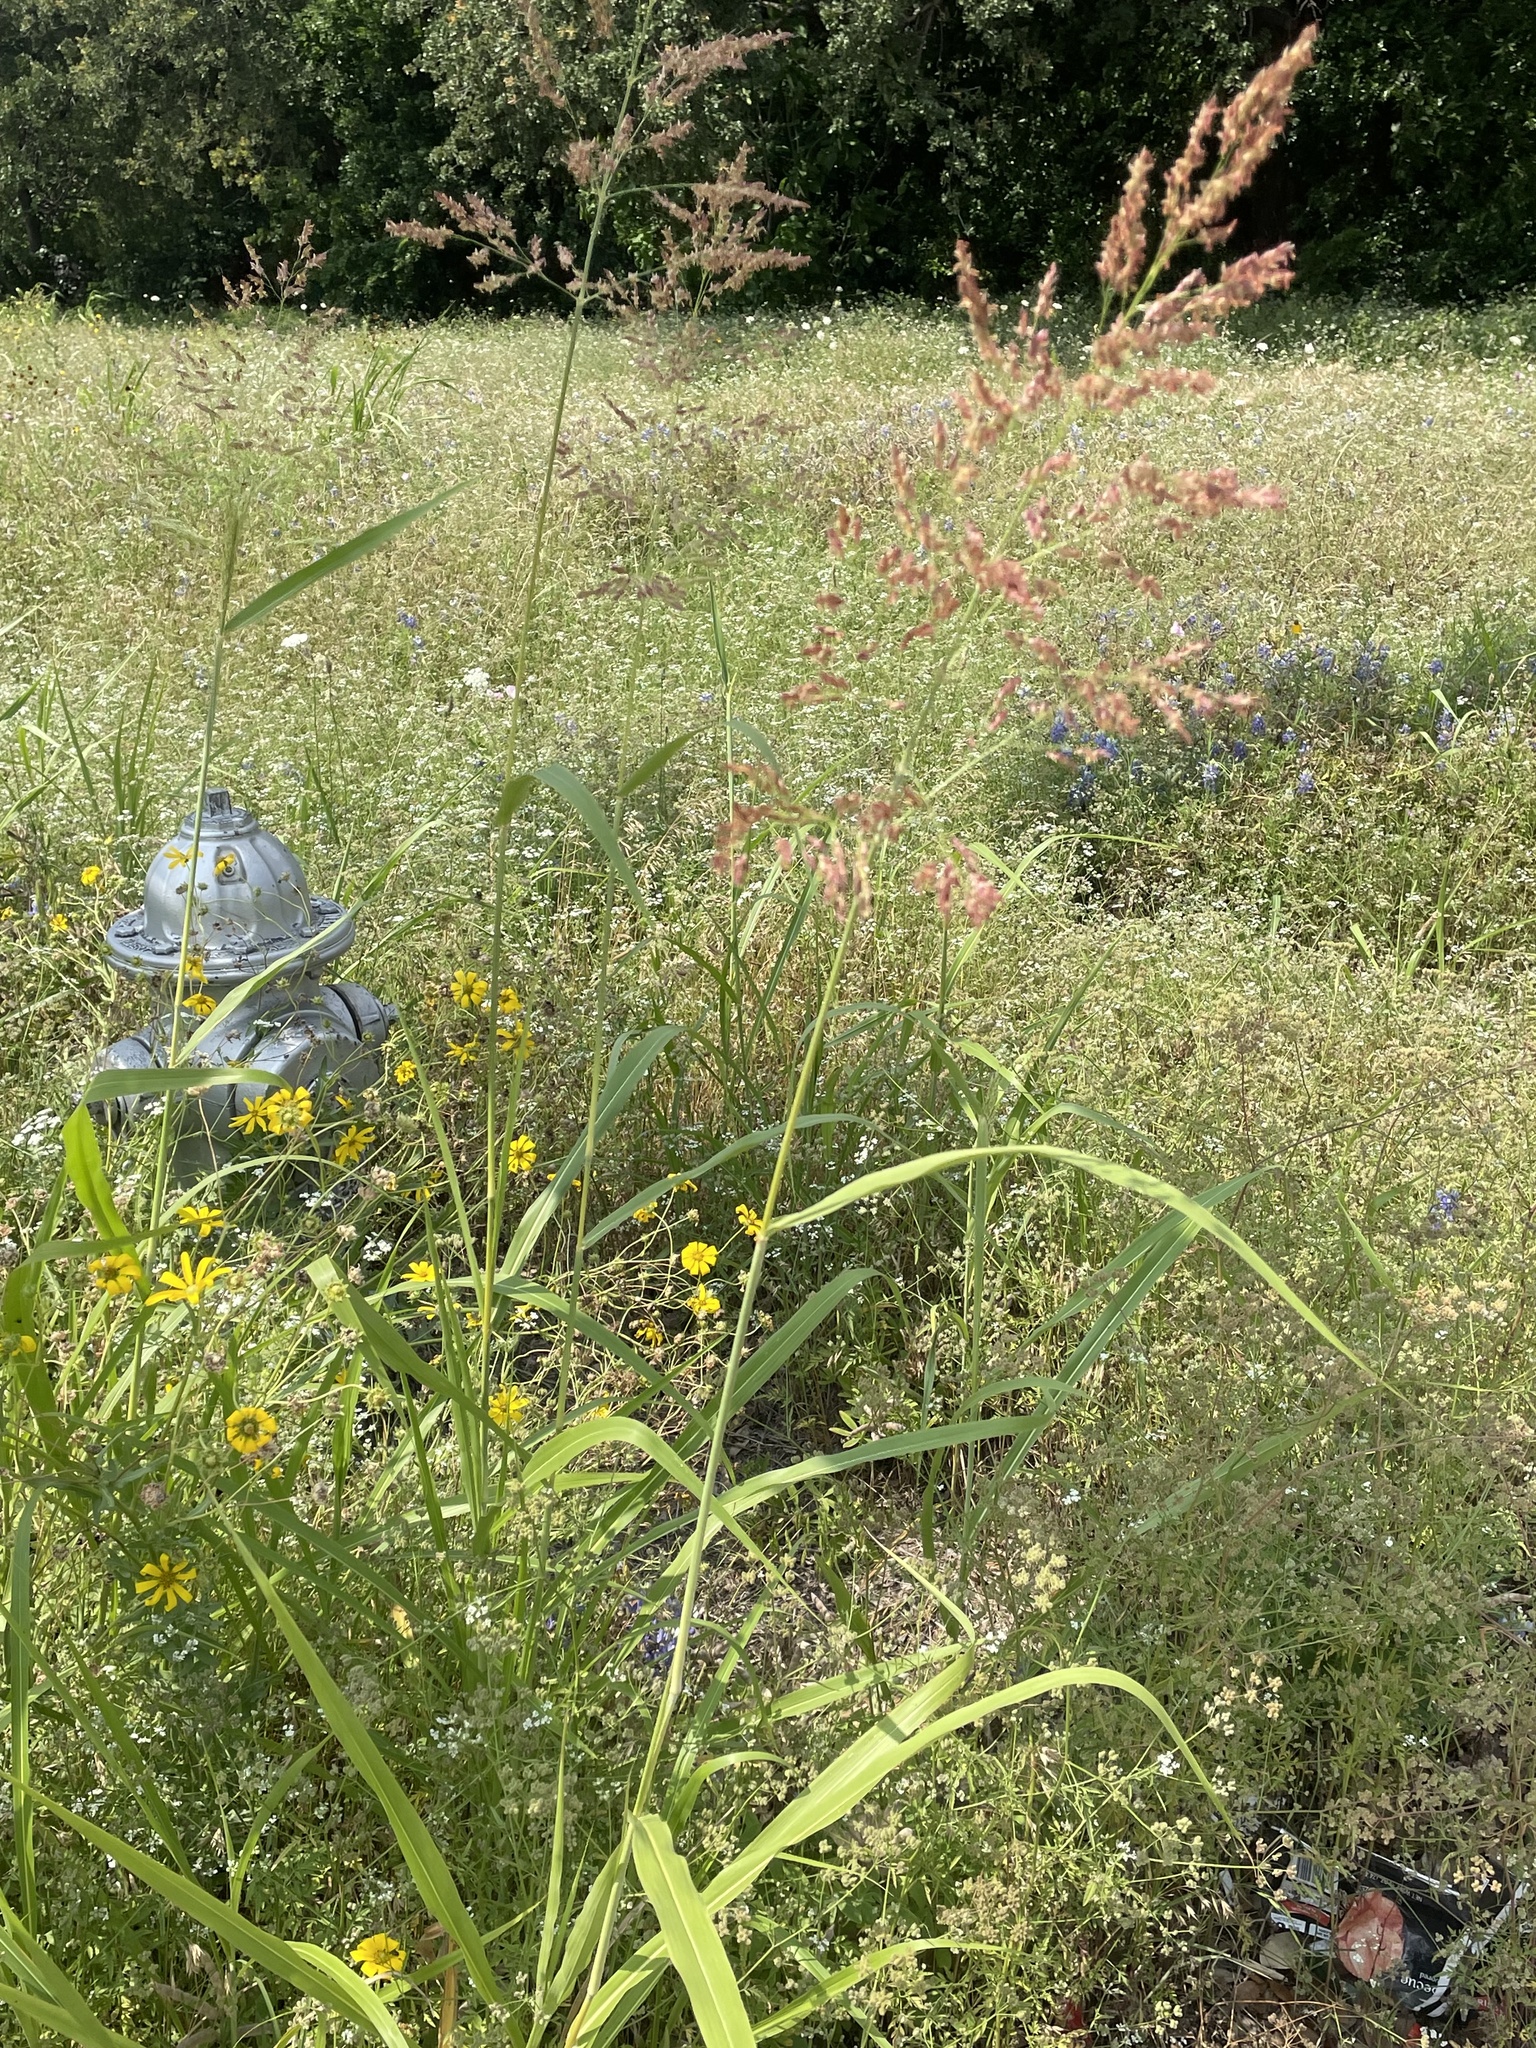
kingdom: Plantae
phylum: Tracheophyta
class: Liliopsida
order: Poales
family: Poaceae
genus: Sorghum
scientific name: Sorghum halepense
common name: Johnson-grass
